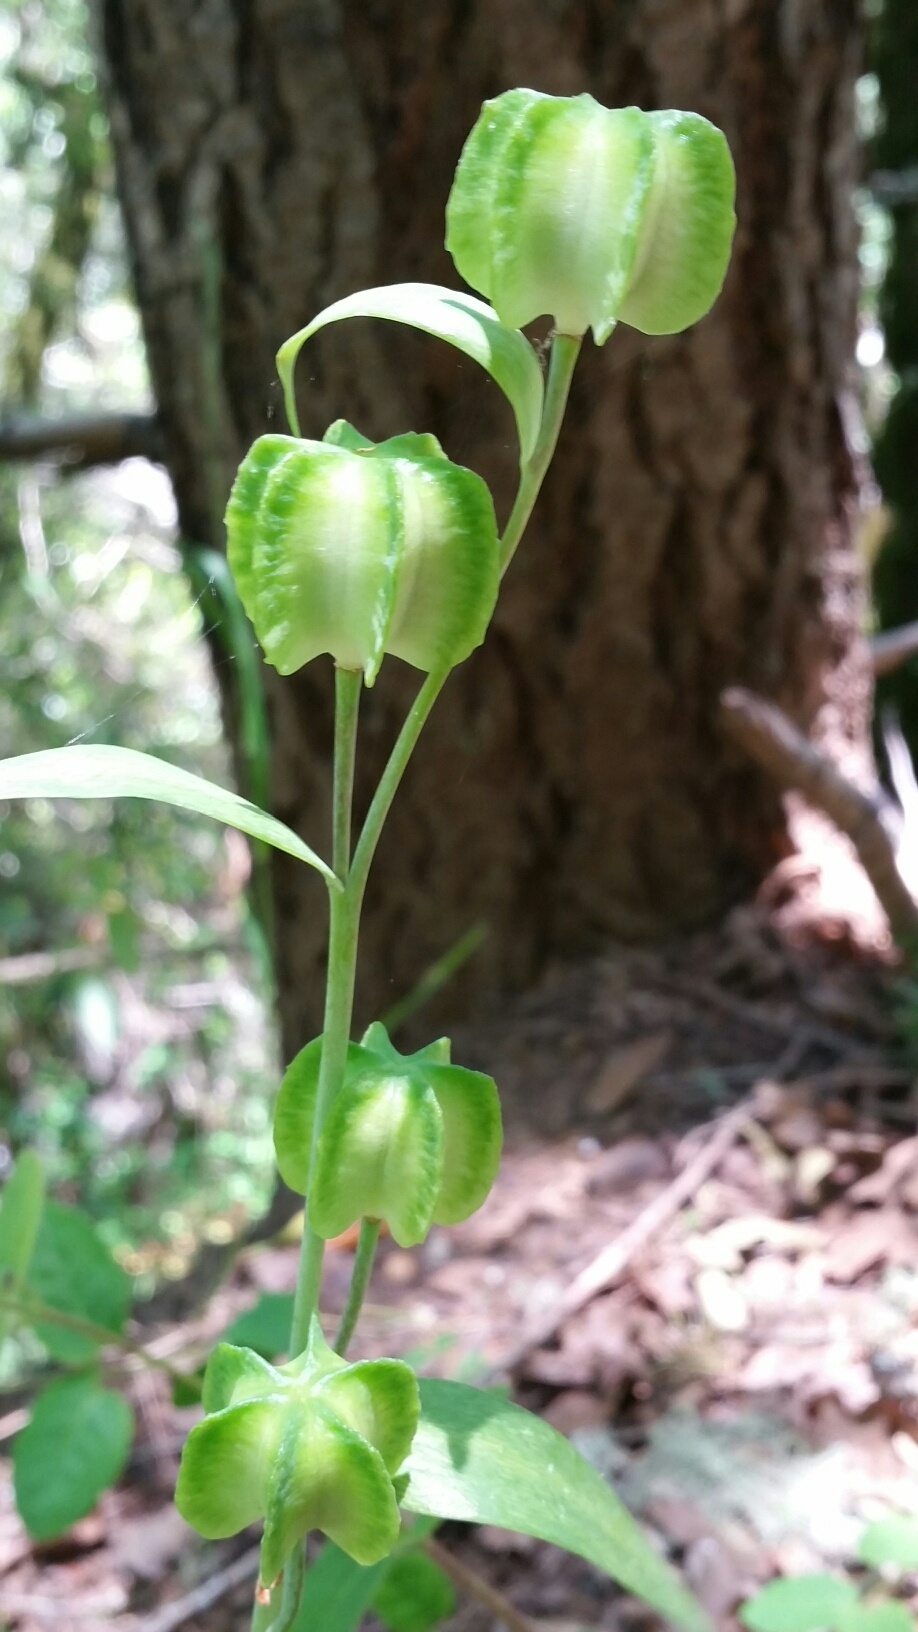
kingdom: Plantae
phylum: Tracheophyta
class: Liliopsida
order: Liliales
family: Liliaceae
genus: Fritillaria
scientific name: Fritillaria affinis
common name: Ojai fritillary
